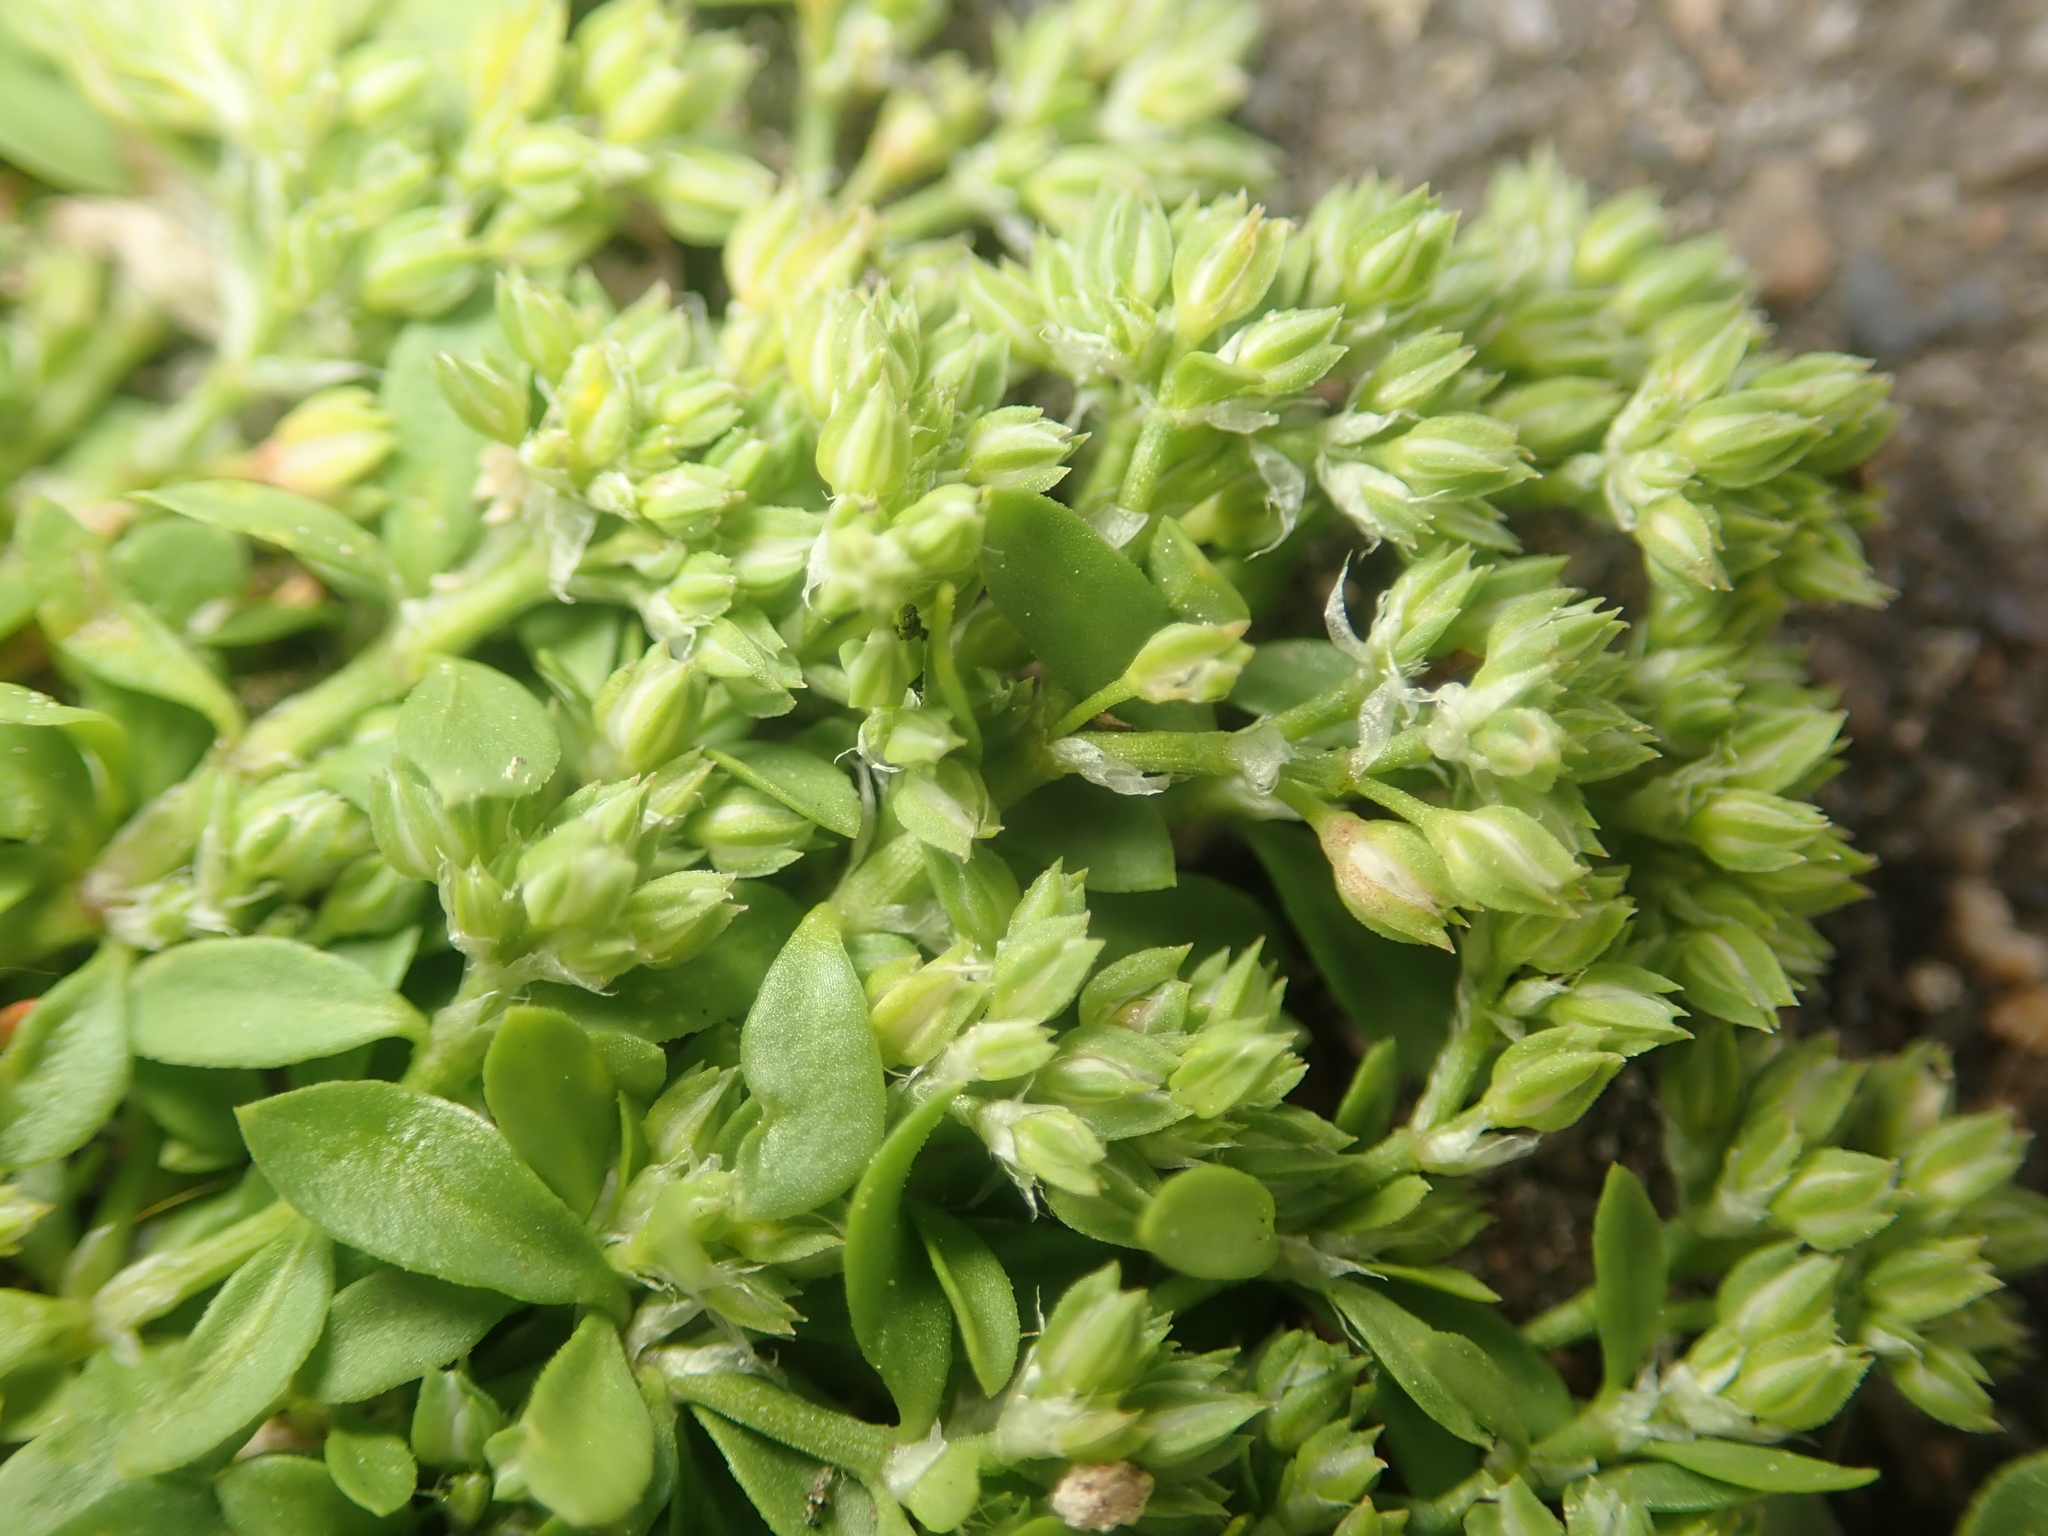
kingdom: Plantae
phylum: Tracheophyta
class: Magnoliopsida
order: Caryophyllales
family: Caryophyllaceae
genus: Polycarpon
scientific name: Polycarpon tetraphyllum
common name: Four-leaved all-seed
